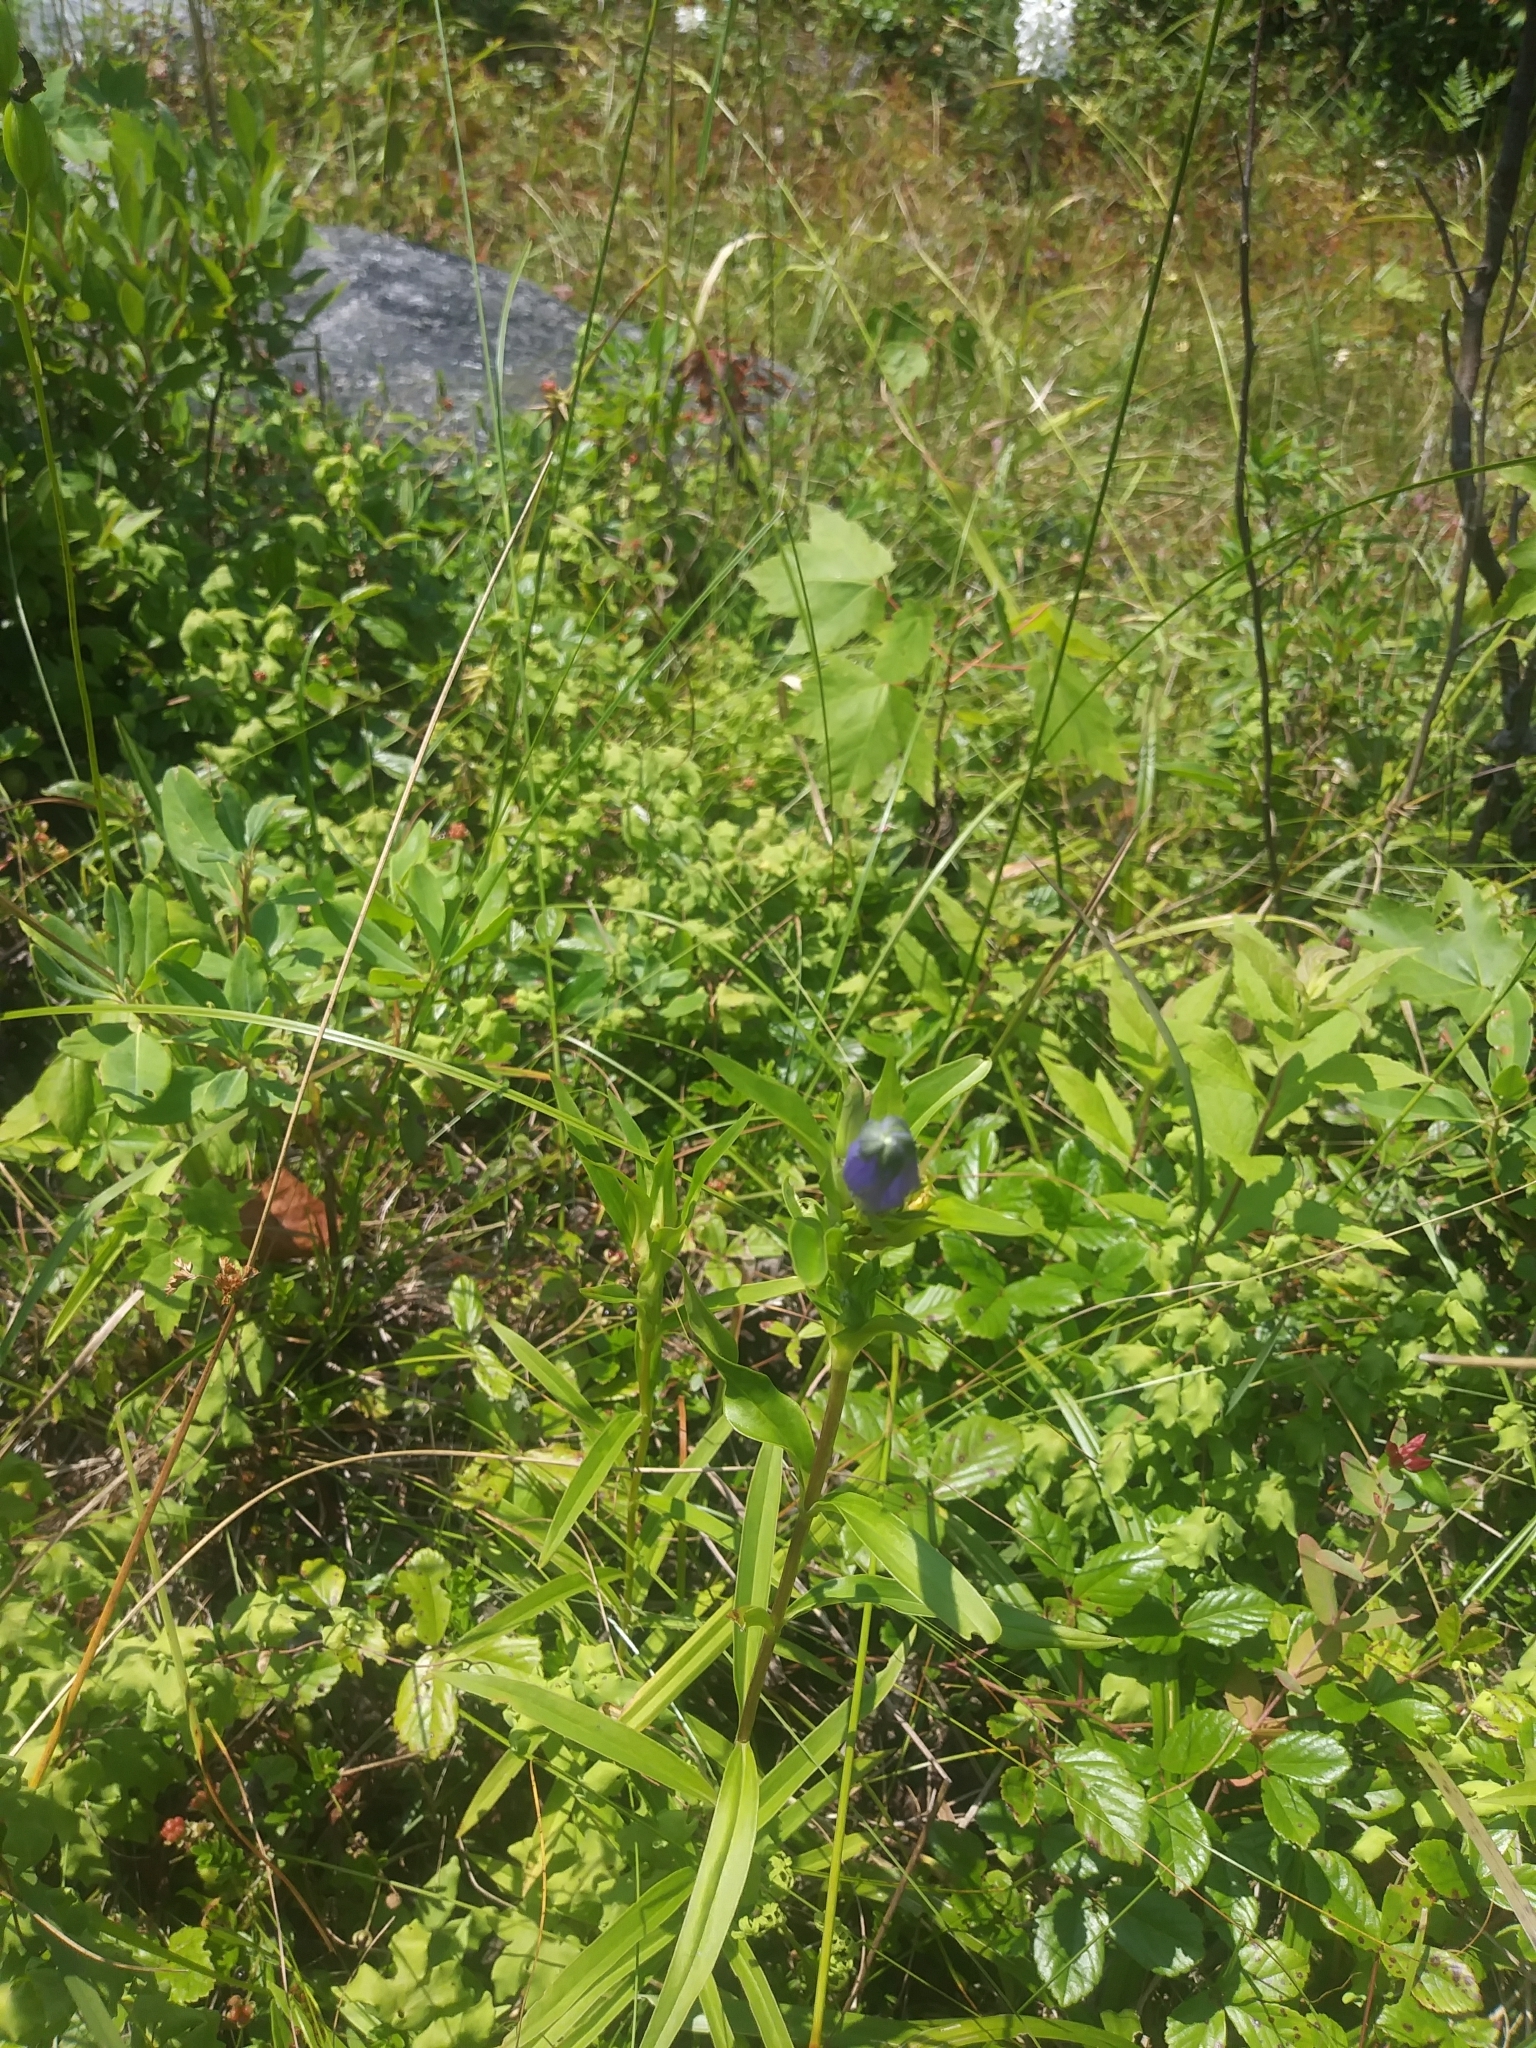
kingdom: Plantae
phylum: Tracheophyta
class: Magnoliopsida
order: Gentianales
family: Gentianaceae
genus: Gentiana
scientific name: Gentiana linearis
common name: Bastard gentian
